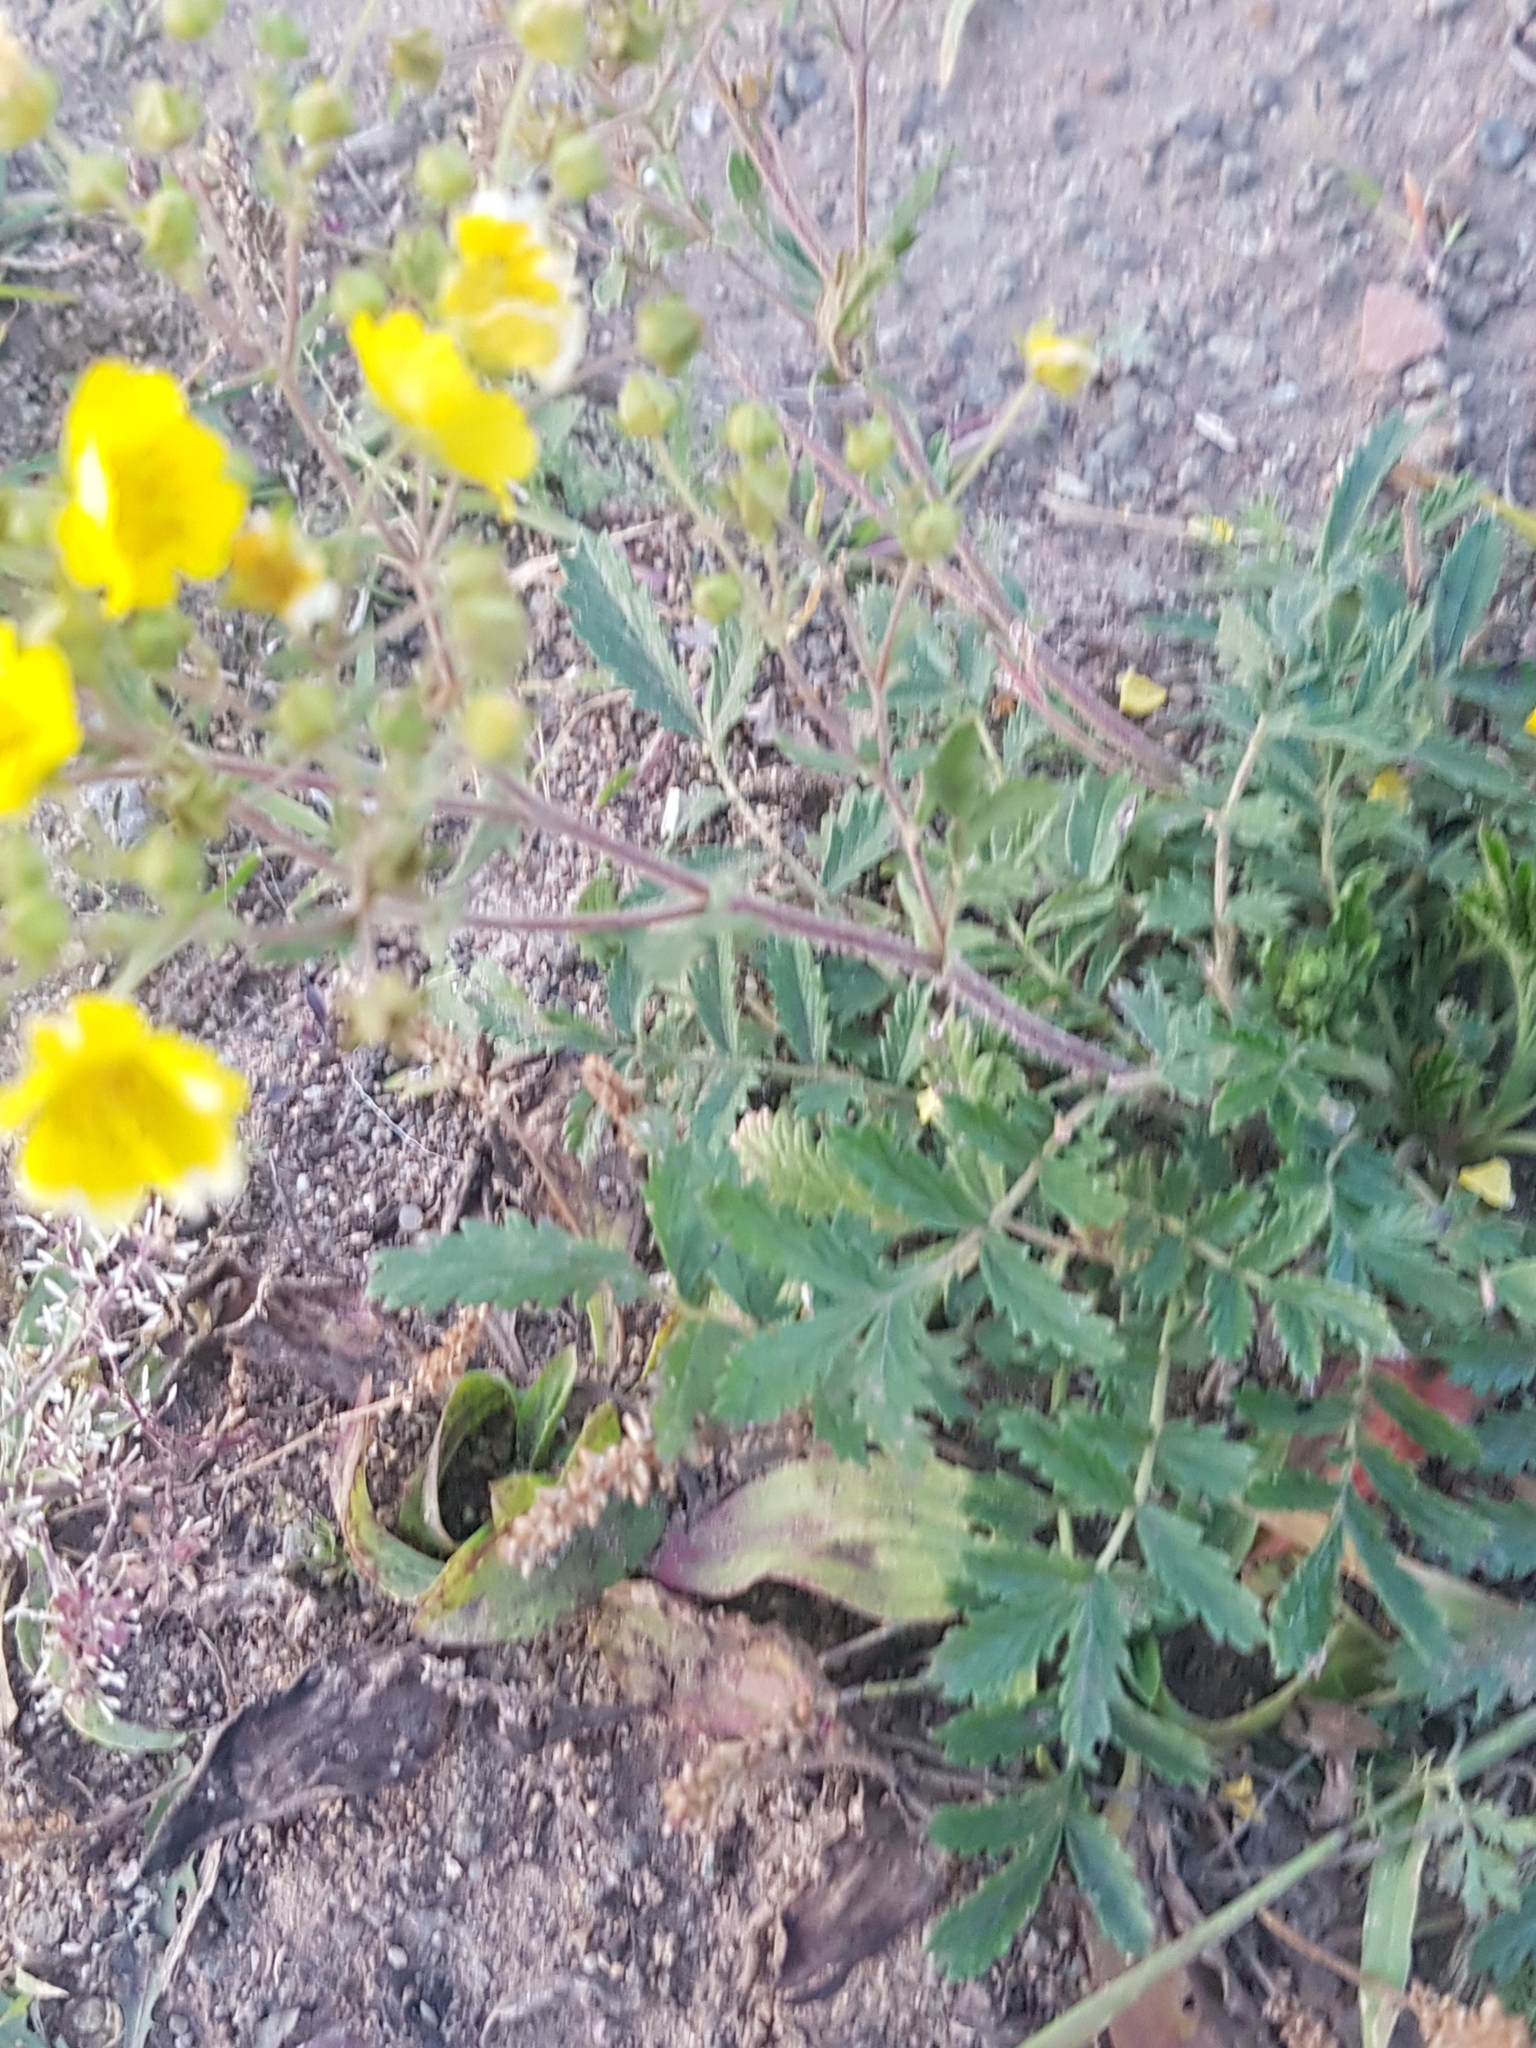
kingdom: Plantae
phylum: Tracheophyta
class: Magnoliopsida
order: Rosales
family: Rosaceae
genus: Potentilla
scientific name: Potentilla tanacetifolia
